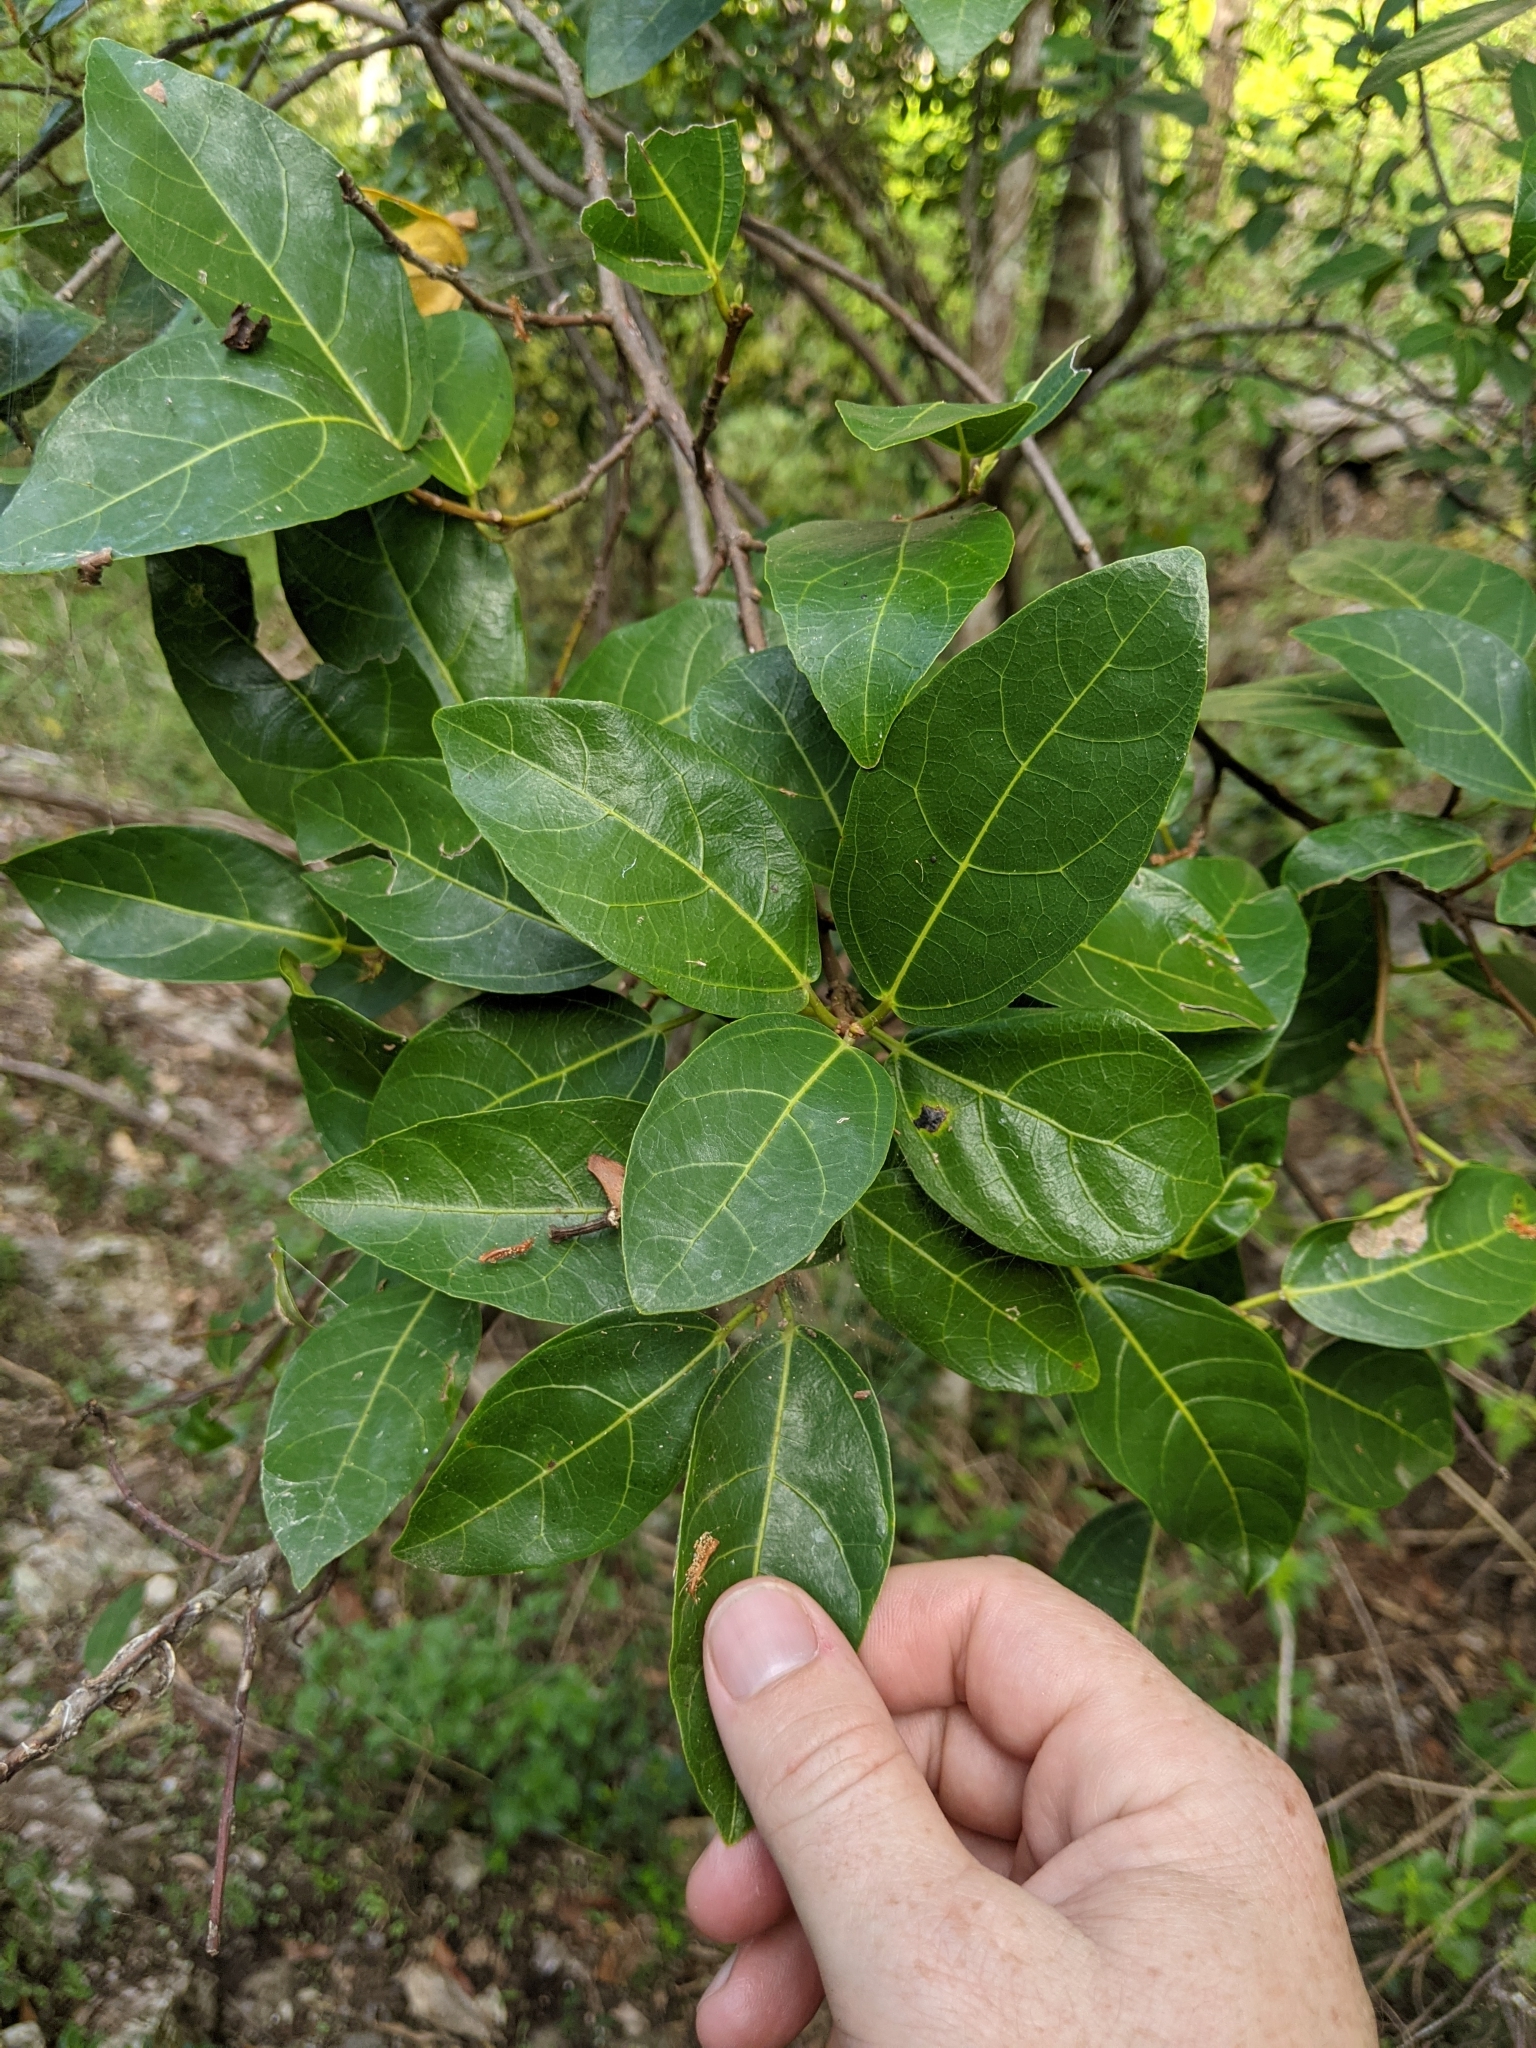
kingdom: Plantae
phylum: Tracheophyta
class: Magnoliopsida
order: Rosales
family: Moraceae
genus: Ficus
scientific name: Ficus fraseri
